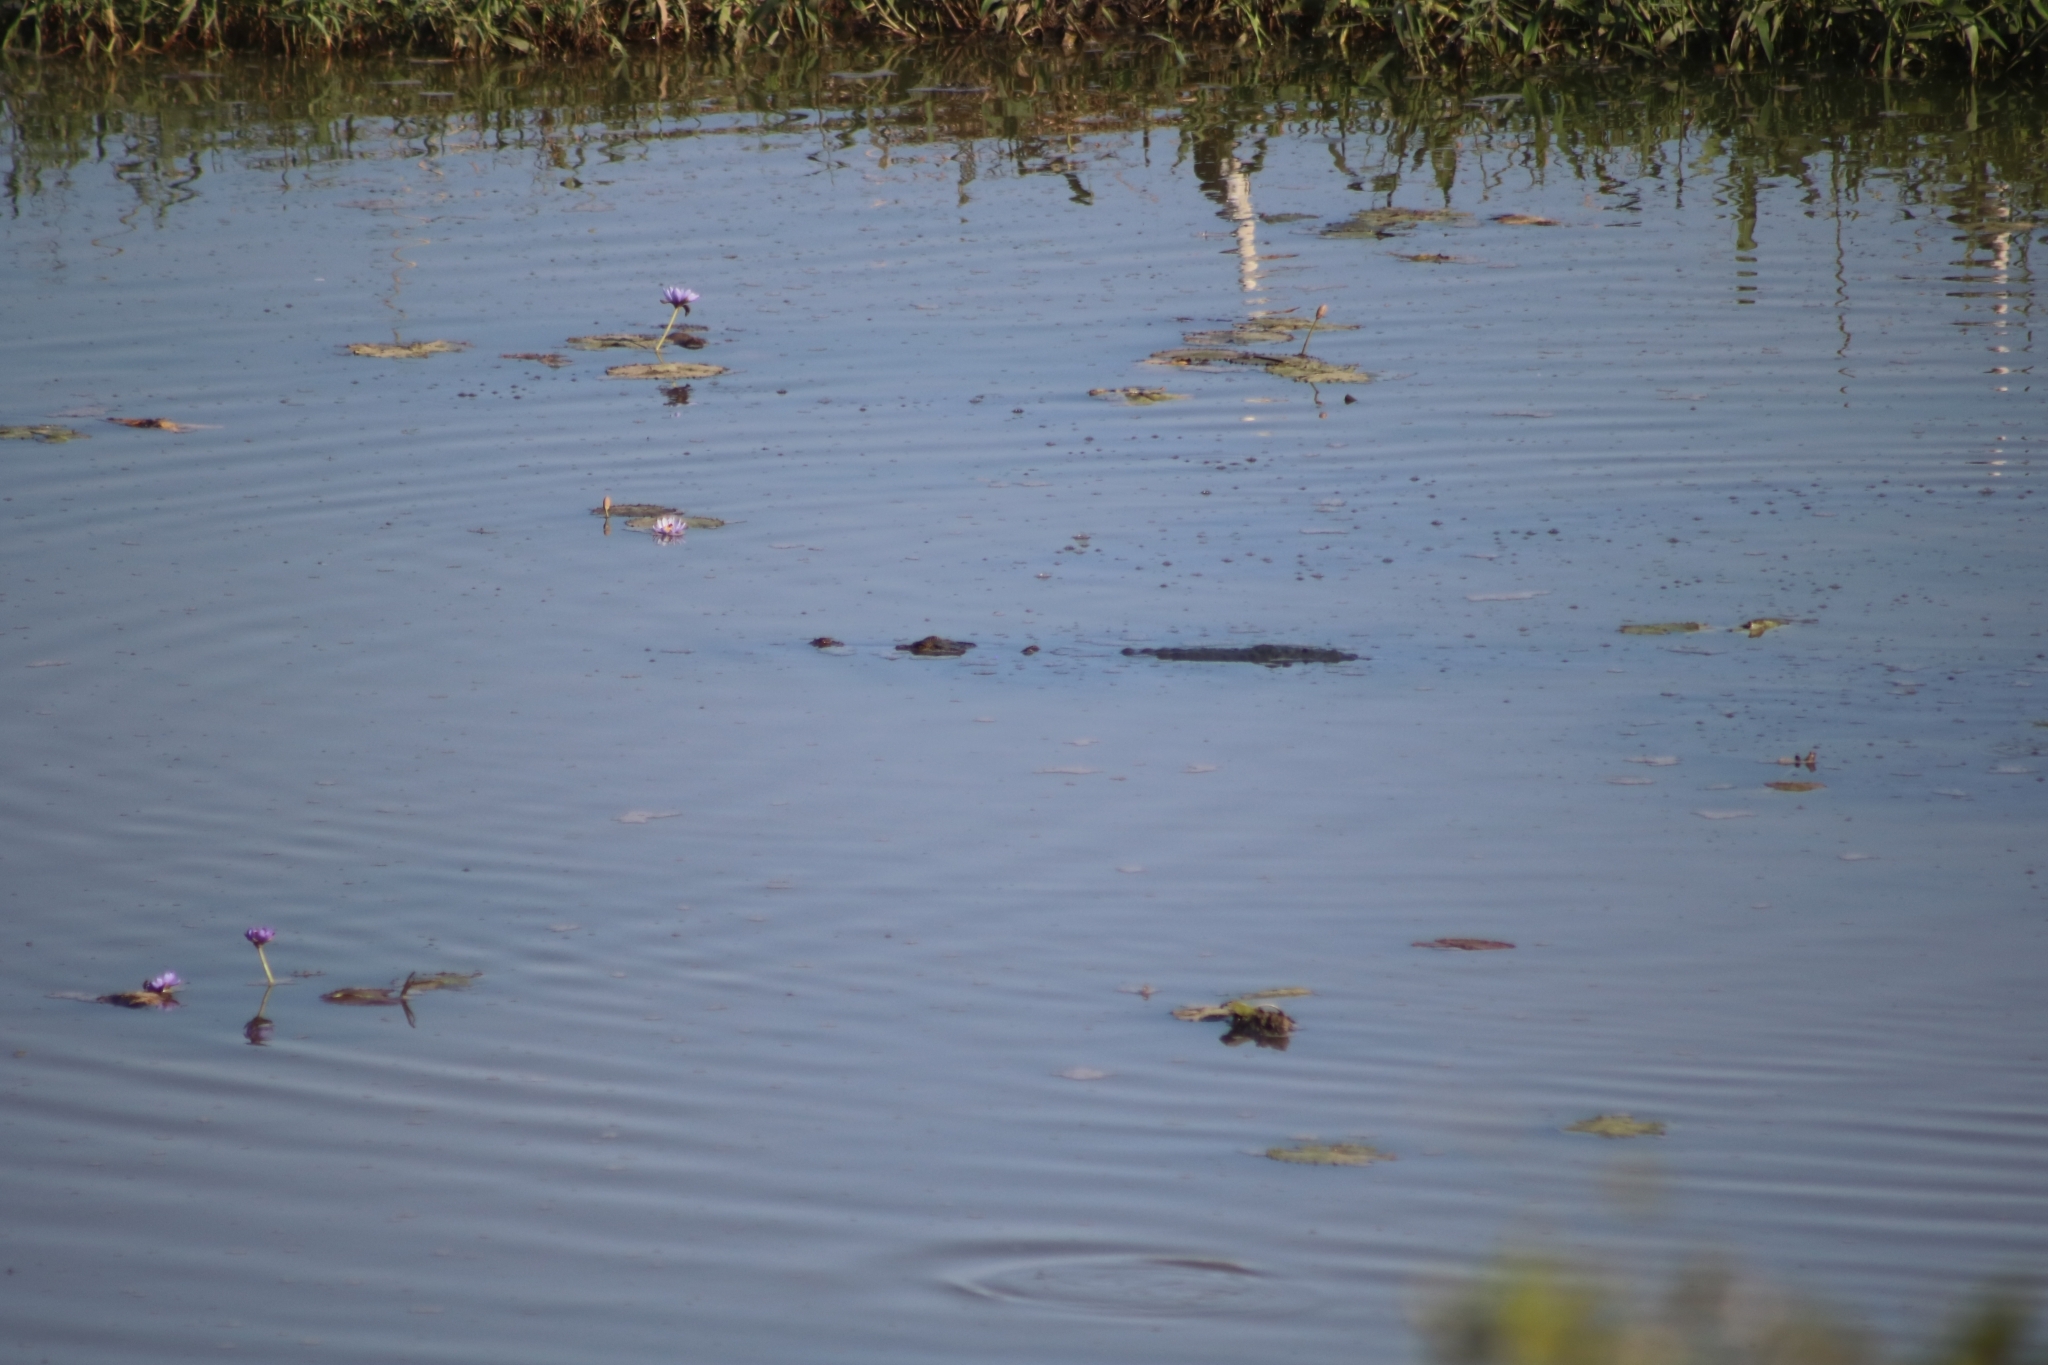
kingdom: Animalia
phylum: Chordata
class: Crocodylia
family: Crocodylidae
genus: Crocodylus
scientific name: Crocodylus porosus
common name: Saltwater crocodile
